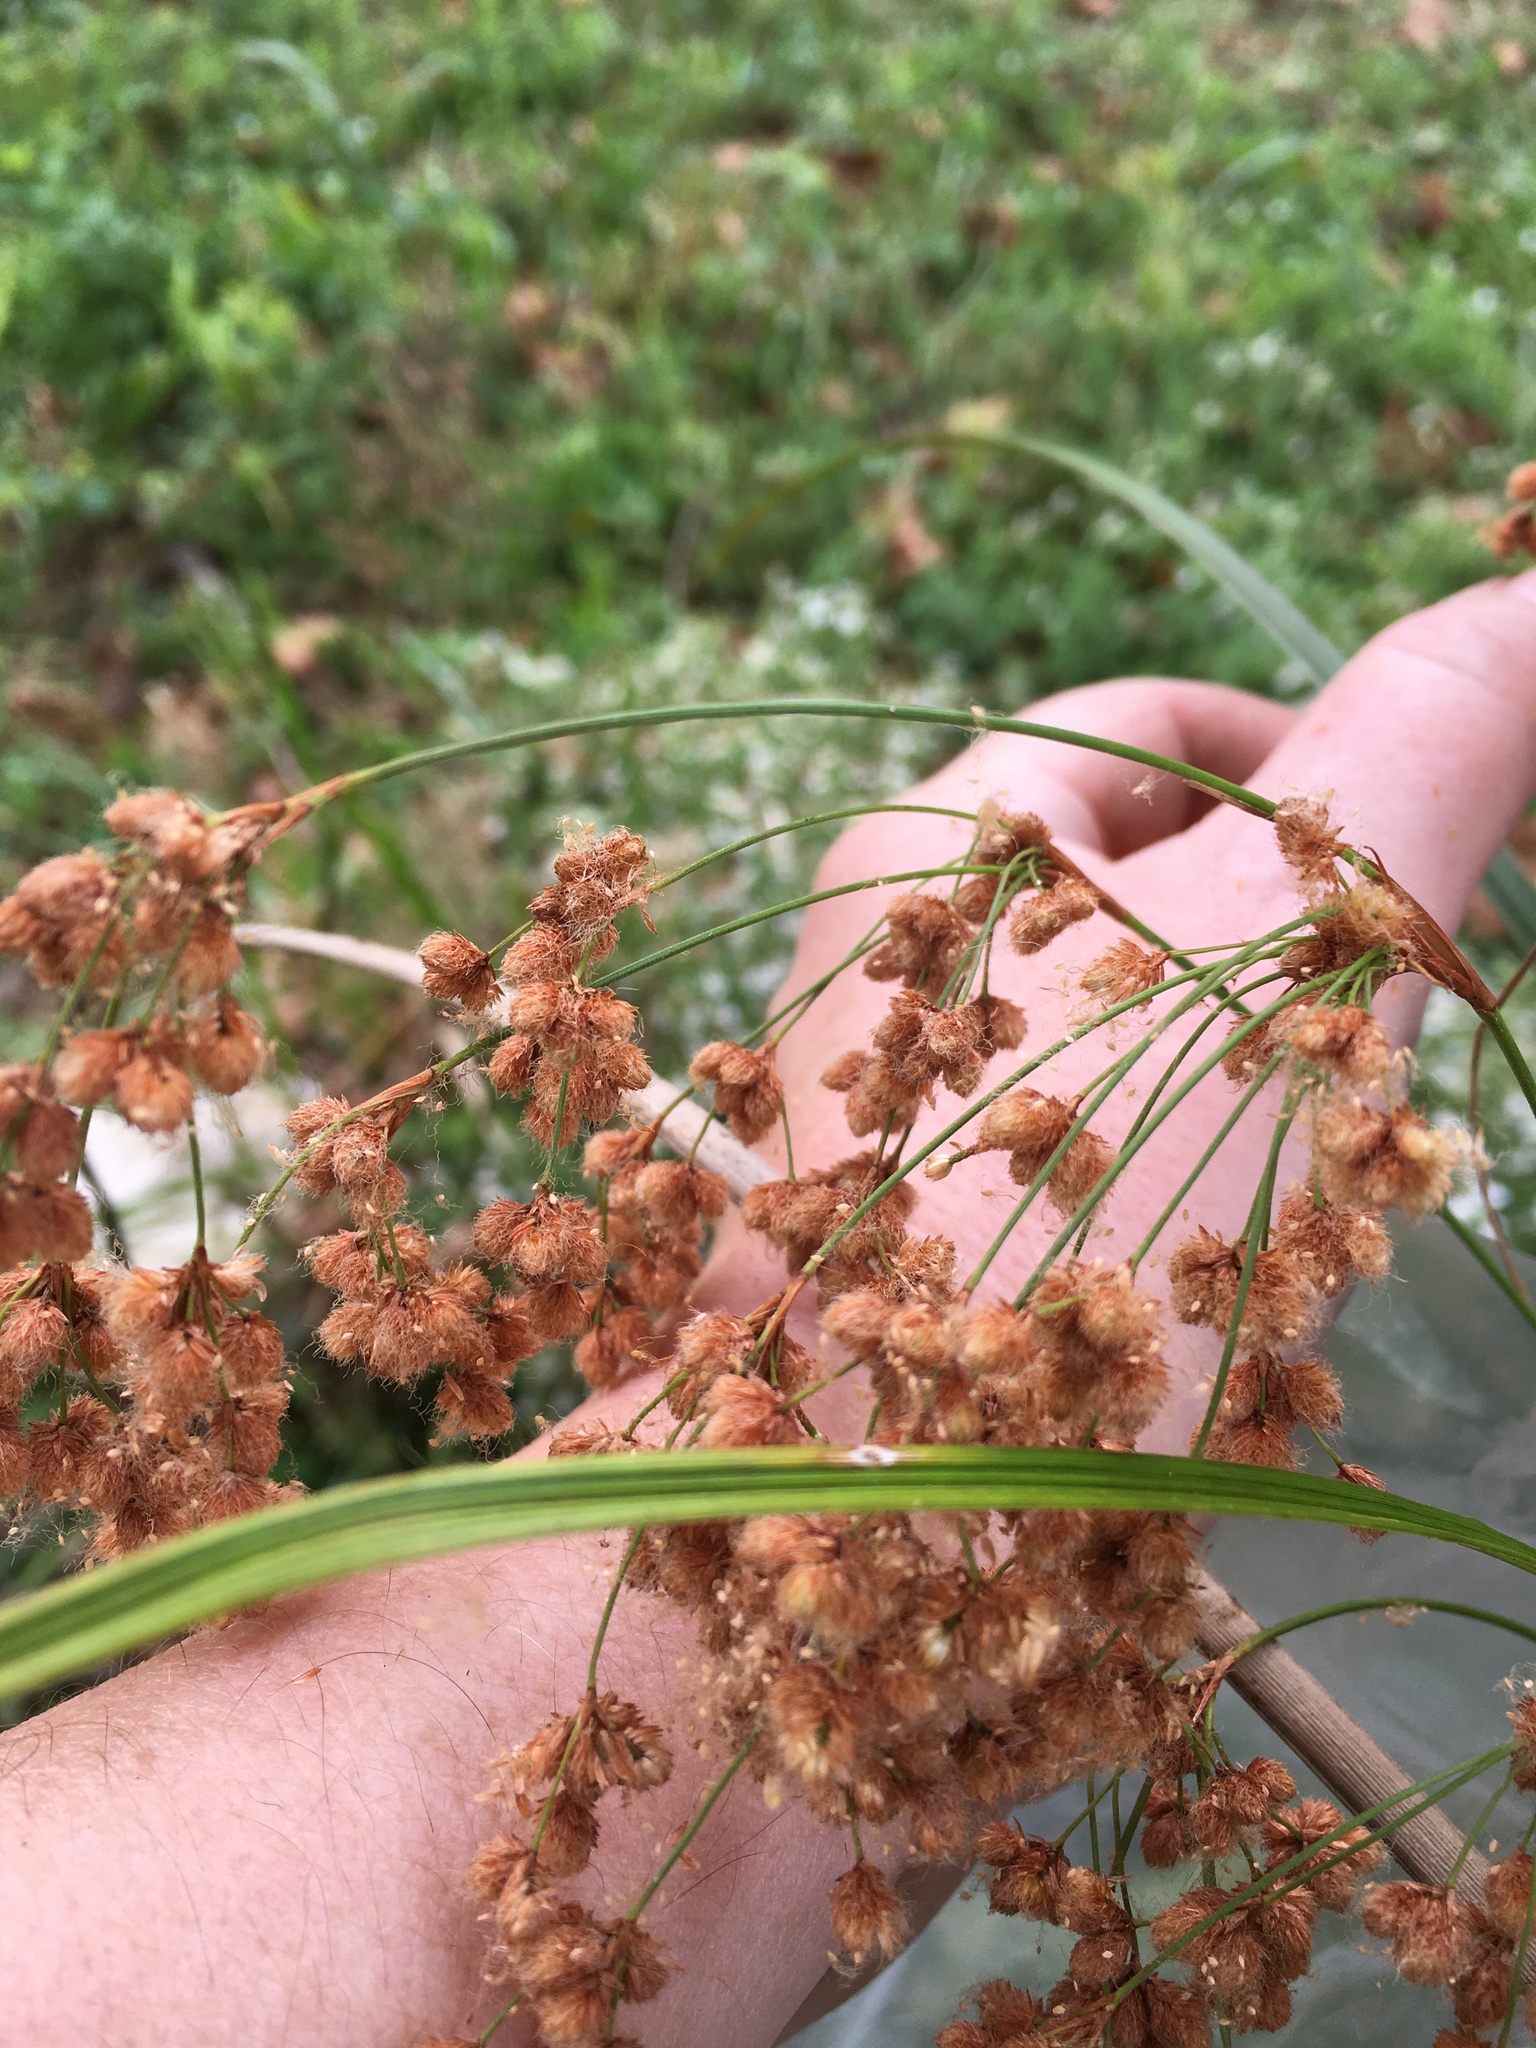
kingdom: Plantae
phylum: Tracheophyta
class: Liliopsida
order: Poales
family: Cyperaceae
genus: Scirpus
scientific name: Scirpus cyperinus
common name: Black-sheathed bulrush
